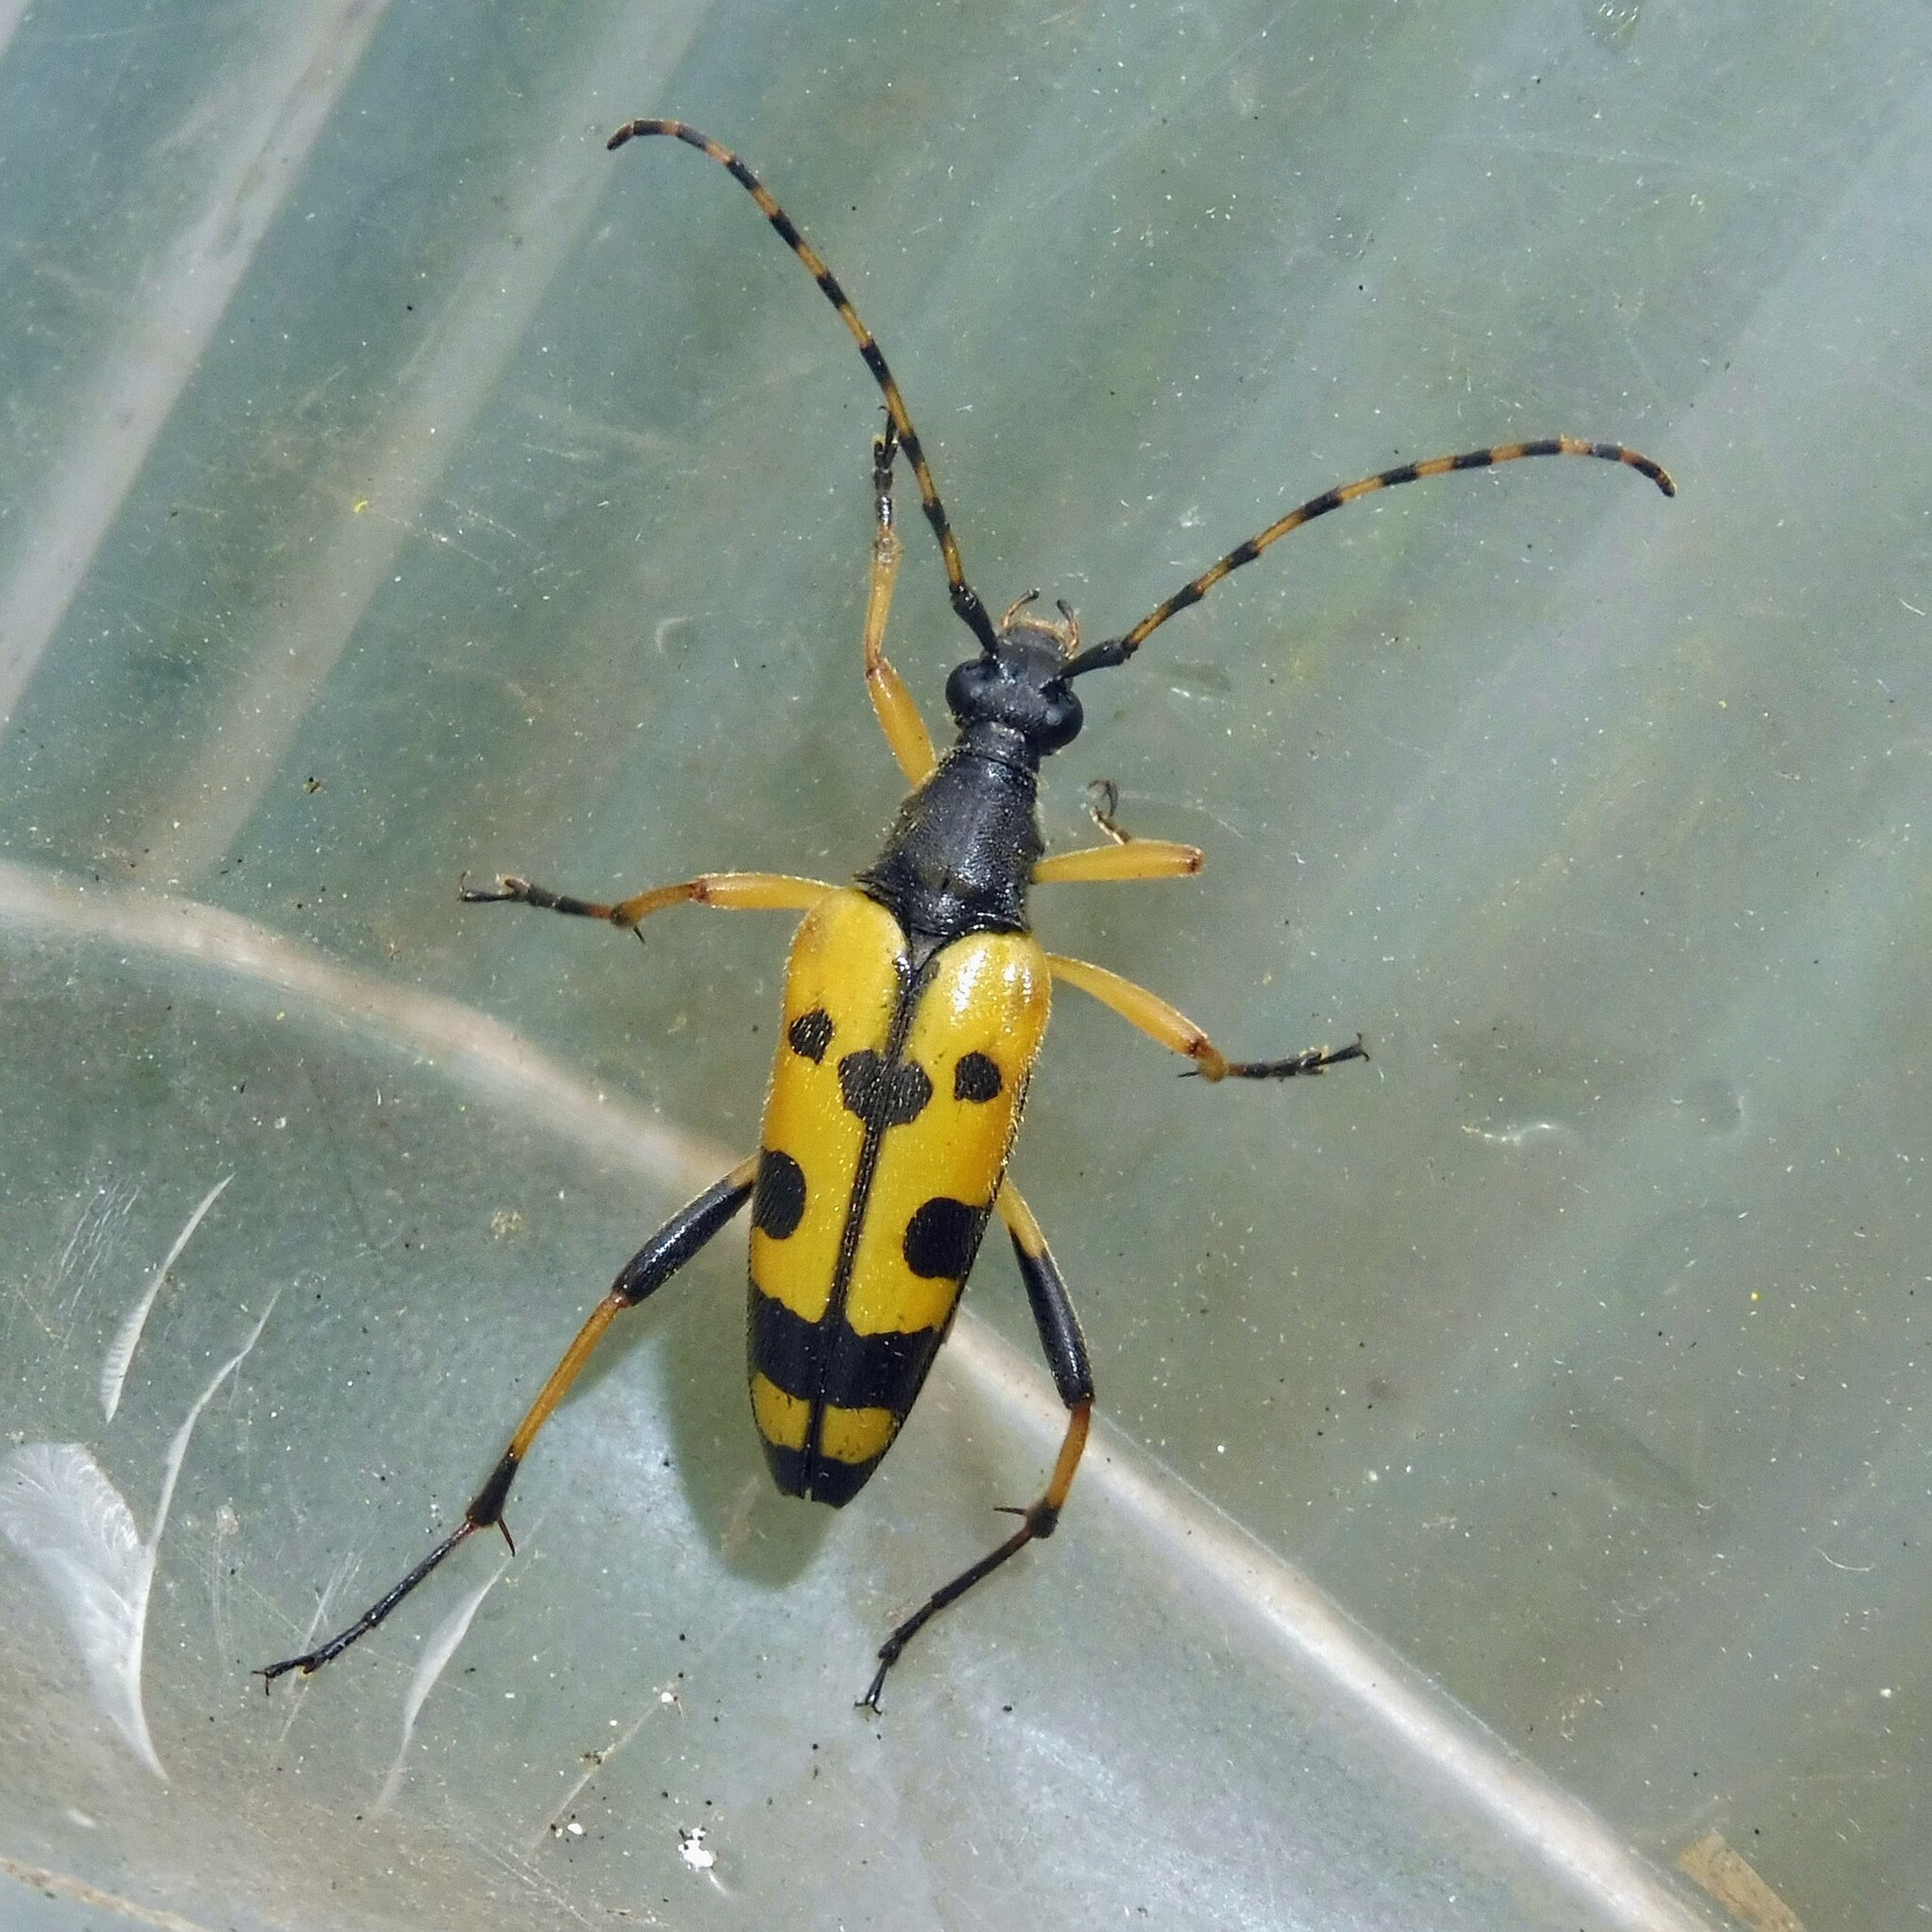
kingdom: Animalia
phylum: Arthropoda
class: Insecta
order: Coleoptera
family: Cerambycidae
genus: Rutpela
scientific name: Rutpela maculata
